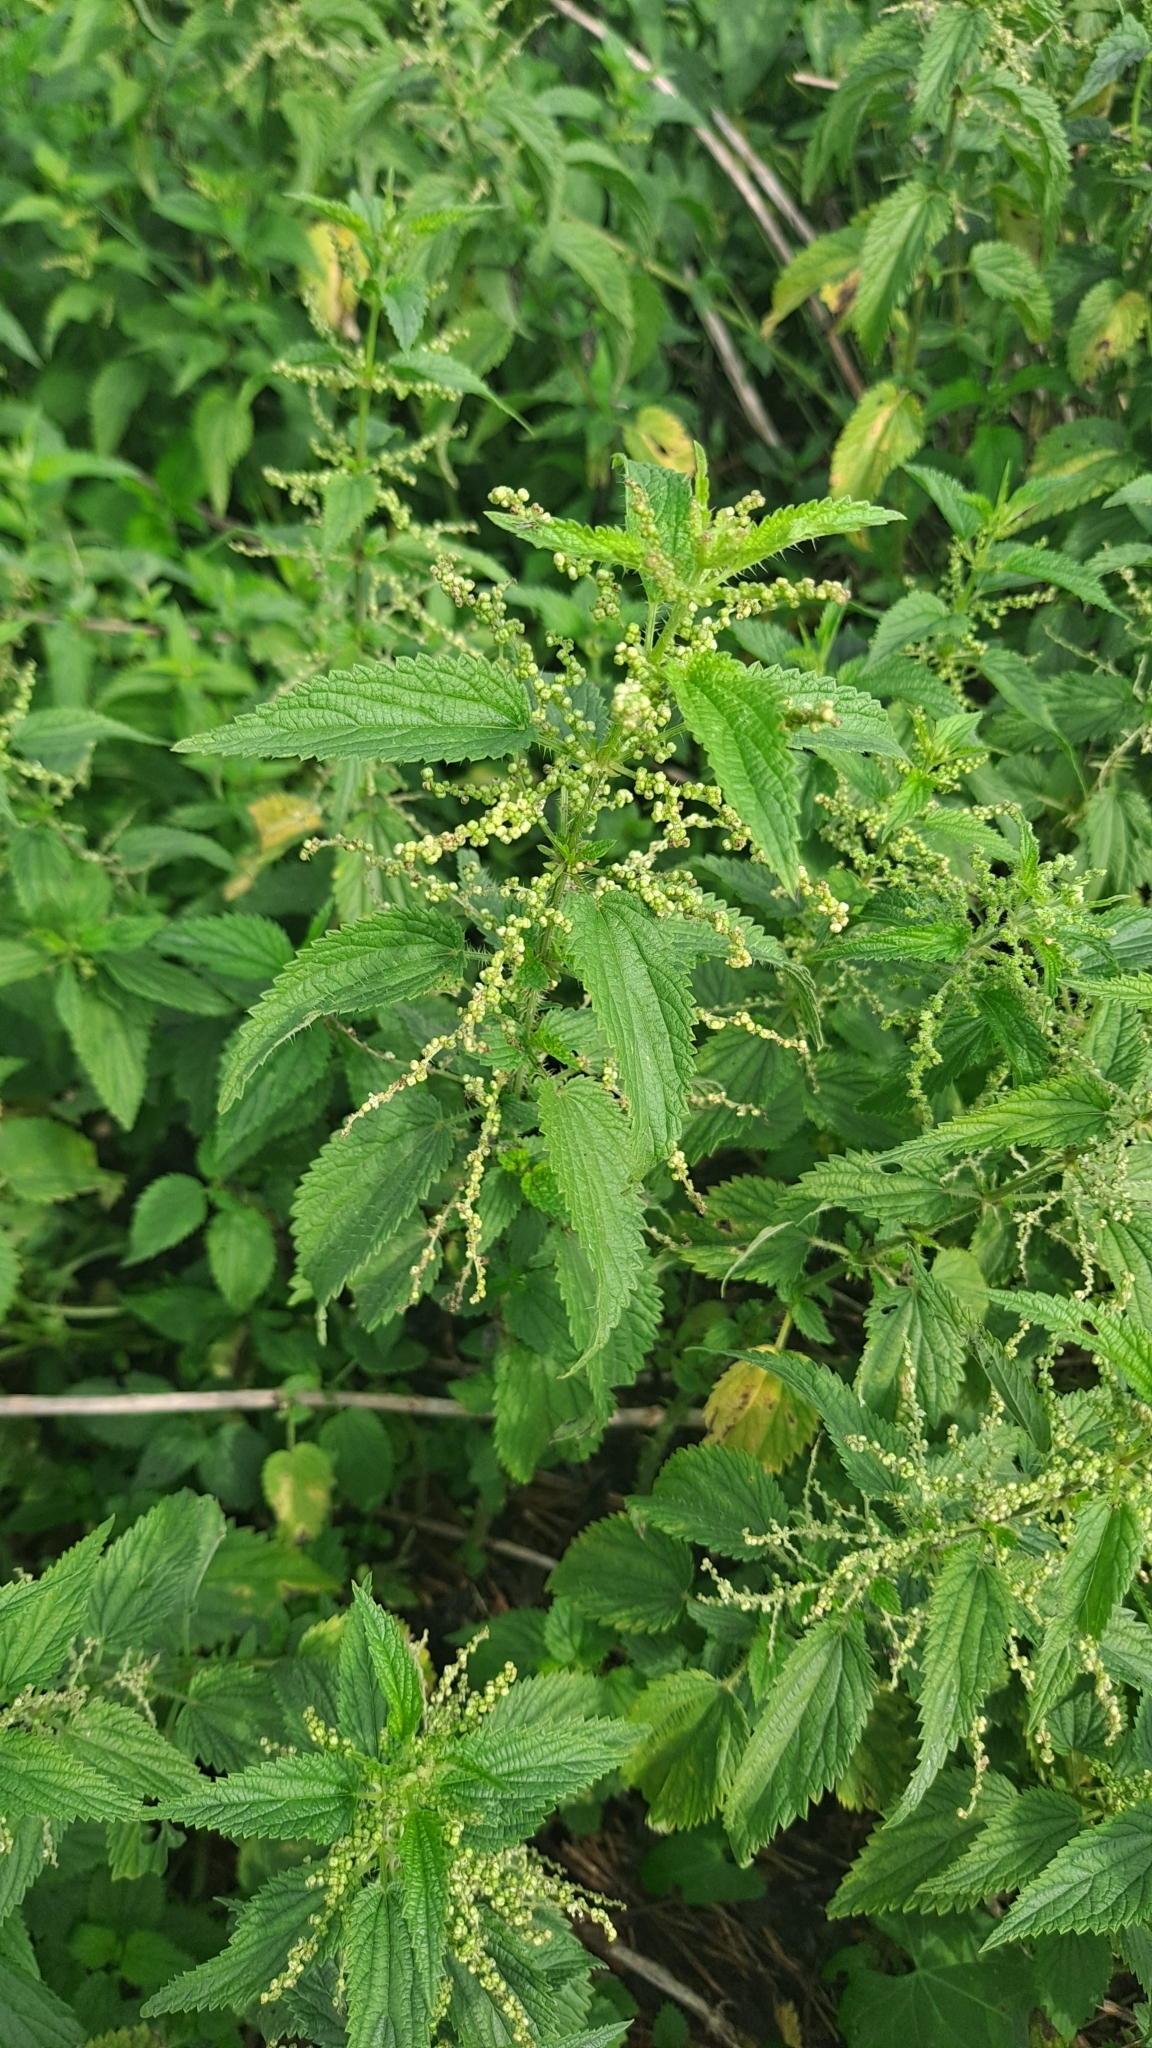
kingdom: Plantae
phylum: Tracheophyta
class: Magnoliopsida
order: Rosales
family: Urticaceae
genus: Urtica
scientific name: Urtica dioica
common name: Common nettle
